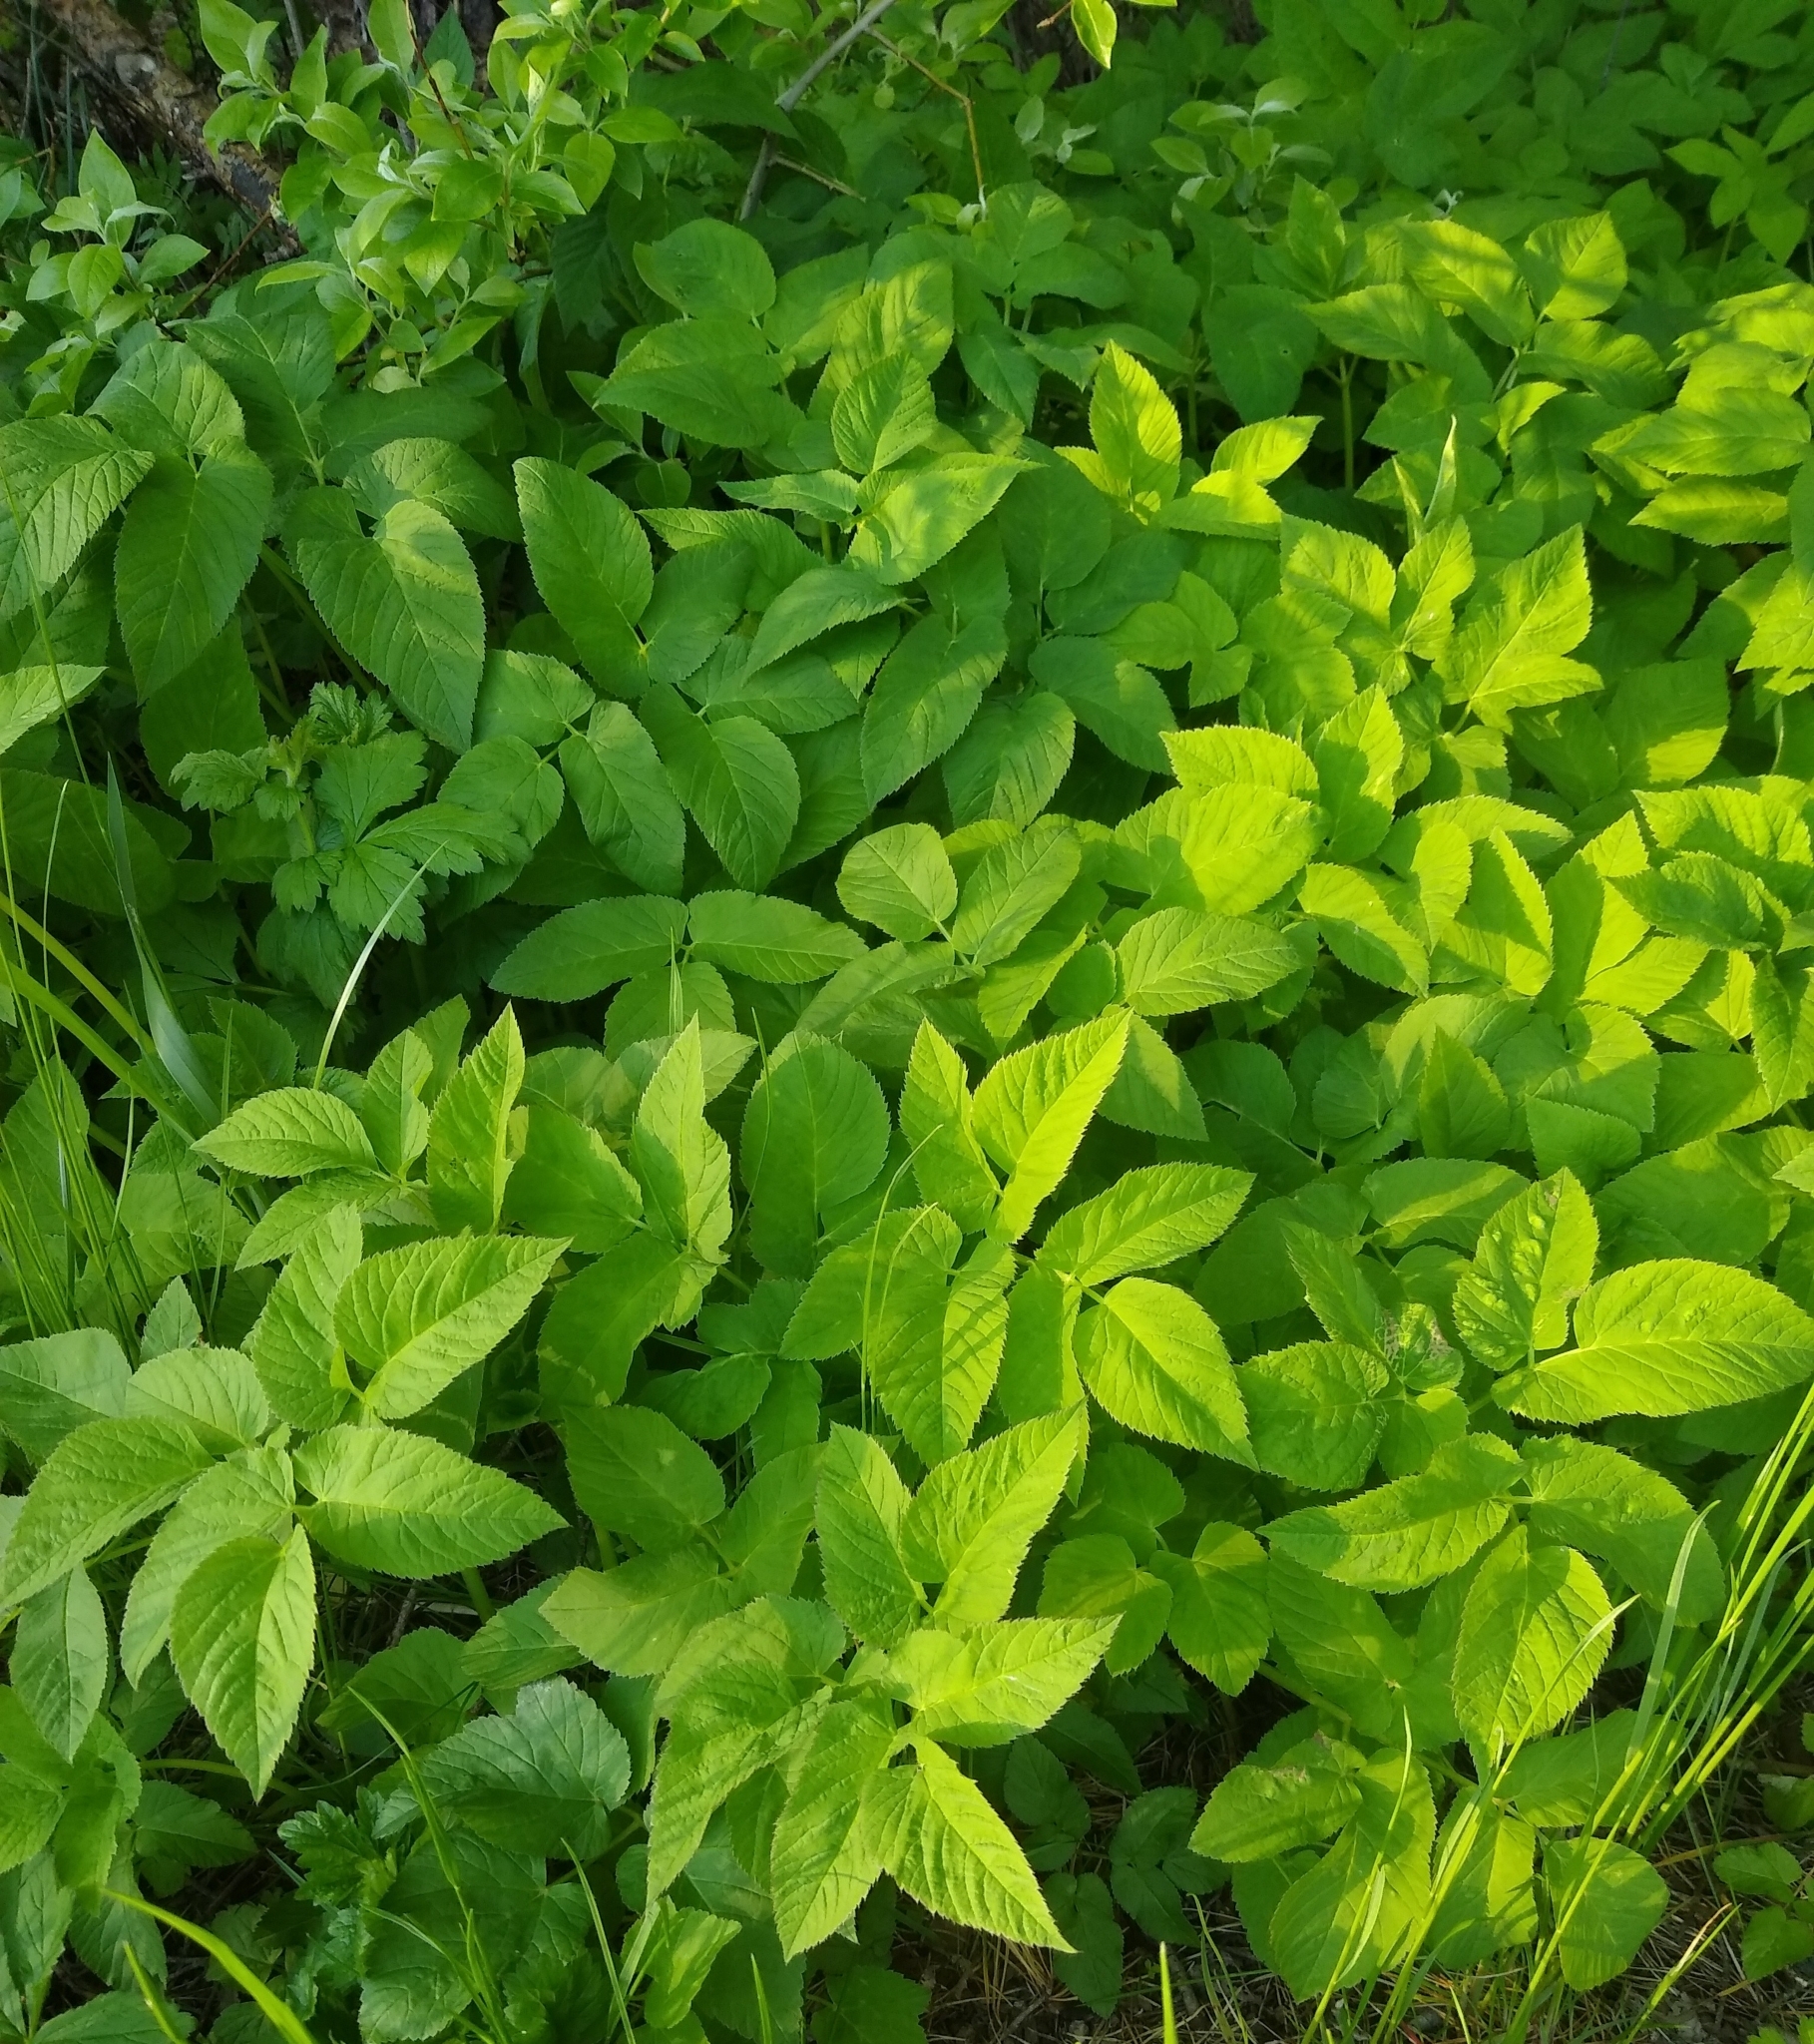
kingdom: Plantae
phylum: Tracheophyta
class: Magnoliopsida
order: Apiales
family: Apiaceae
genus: Aegopodium
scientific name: Aegopodium podagraria
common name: Ground-elder
